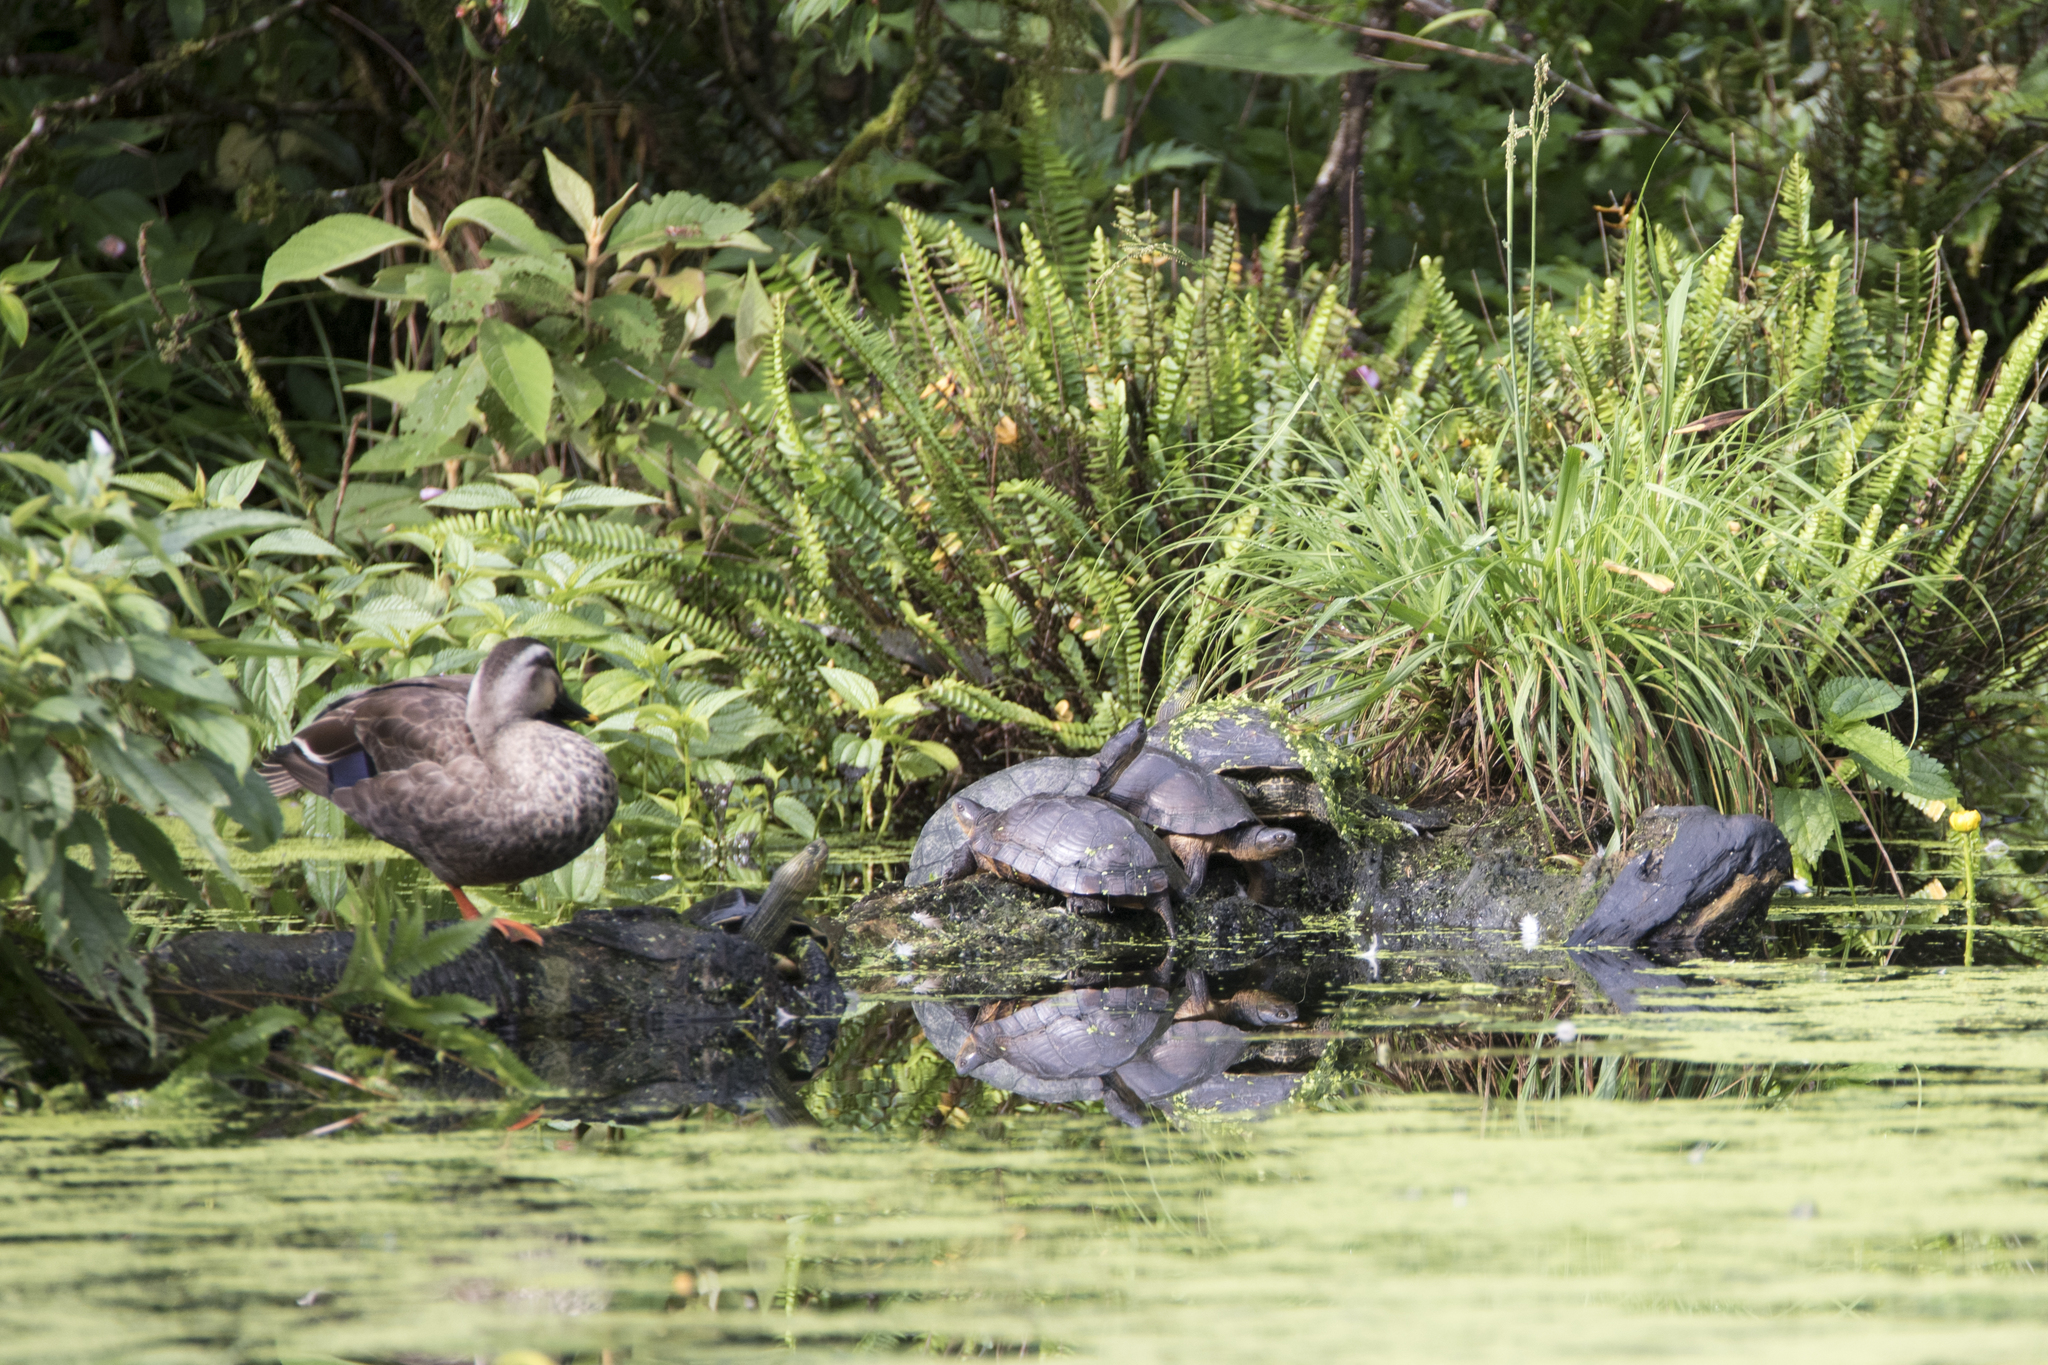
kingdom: Animalia
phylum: Chordata
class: Testudines
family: Geoemydidae
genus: Mauremys
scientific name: Mauremys mutica
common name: Yellow pond turtle
